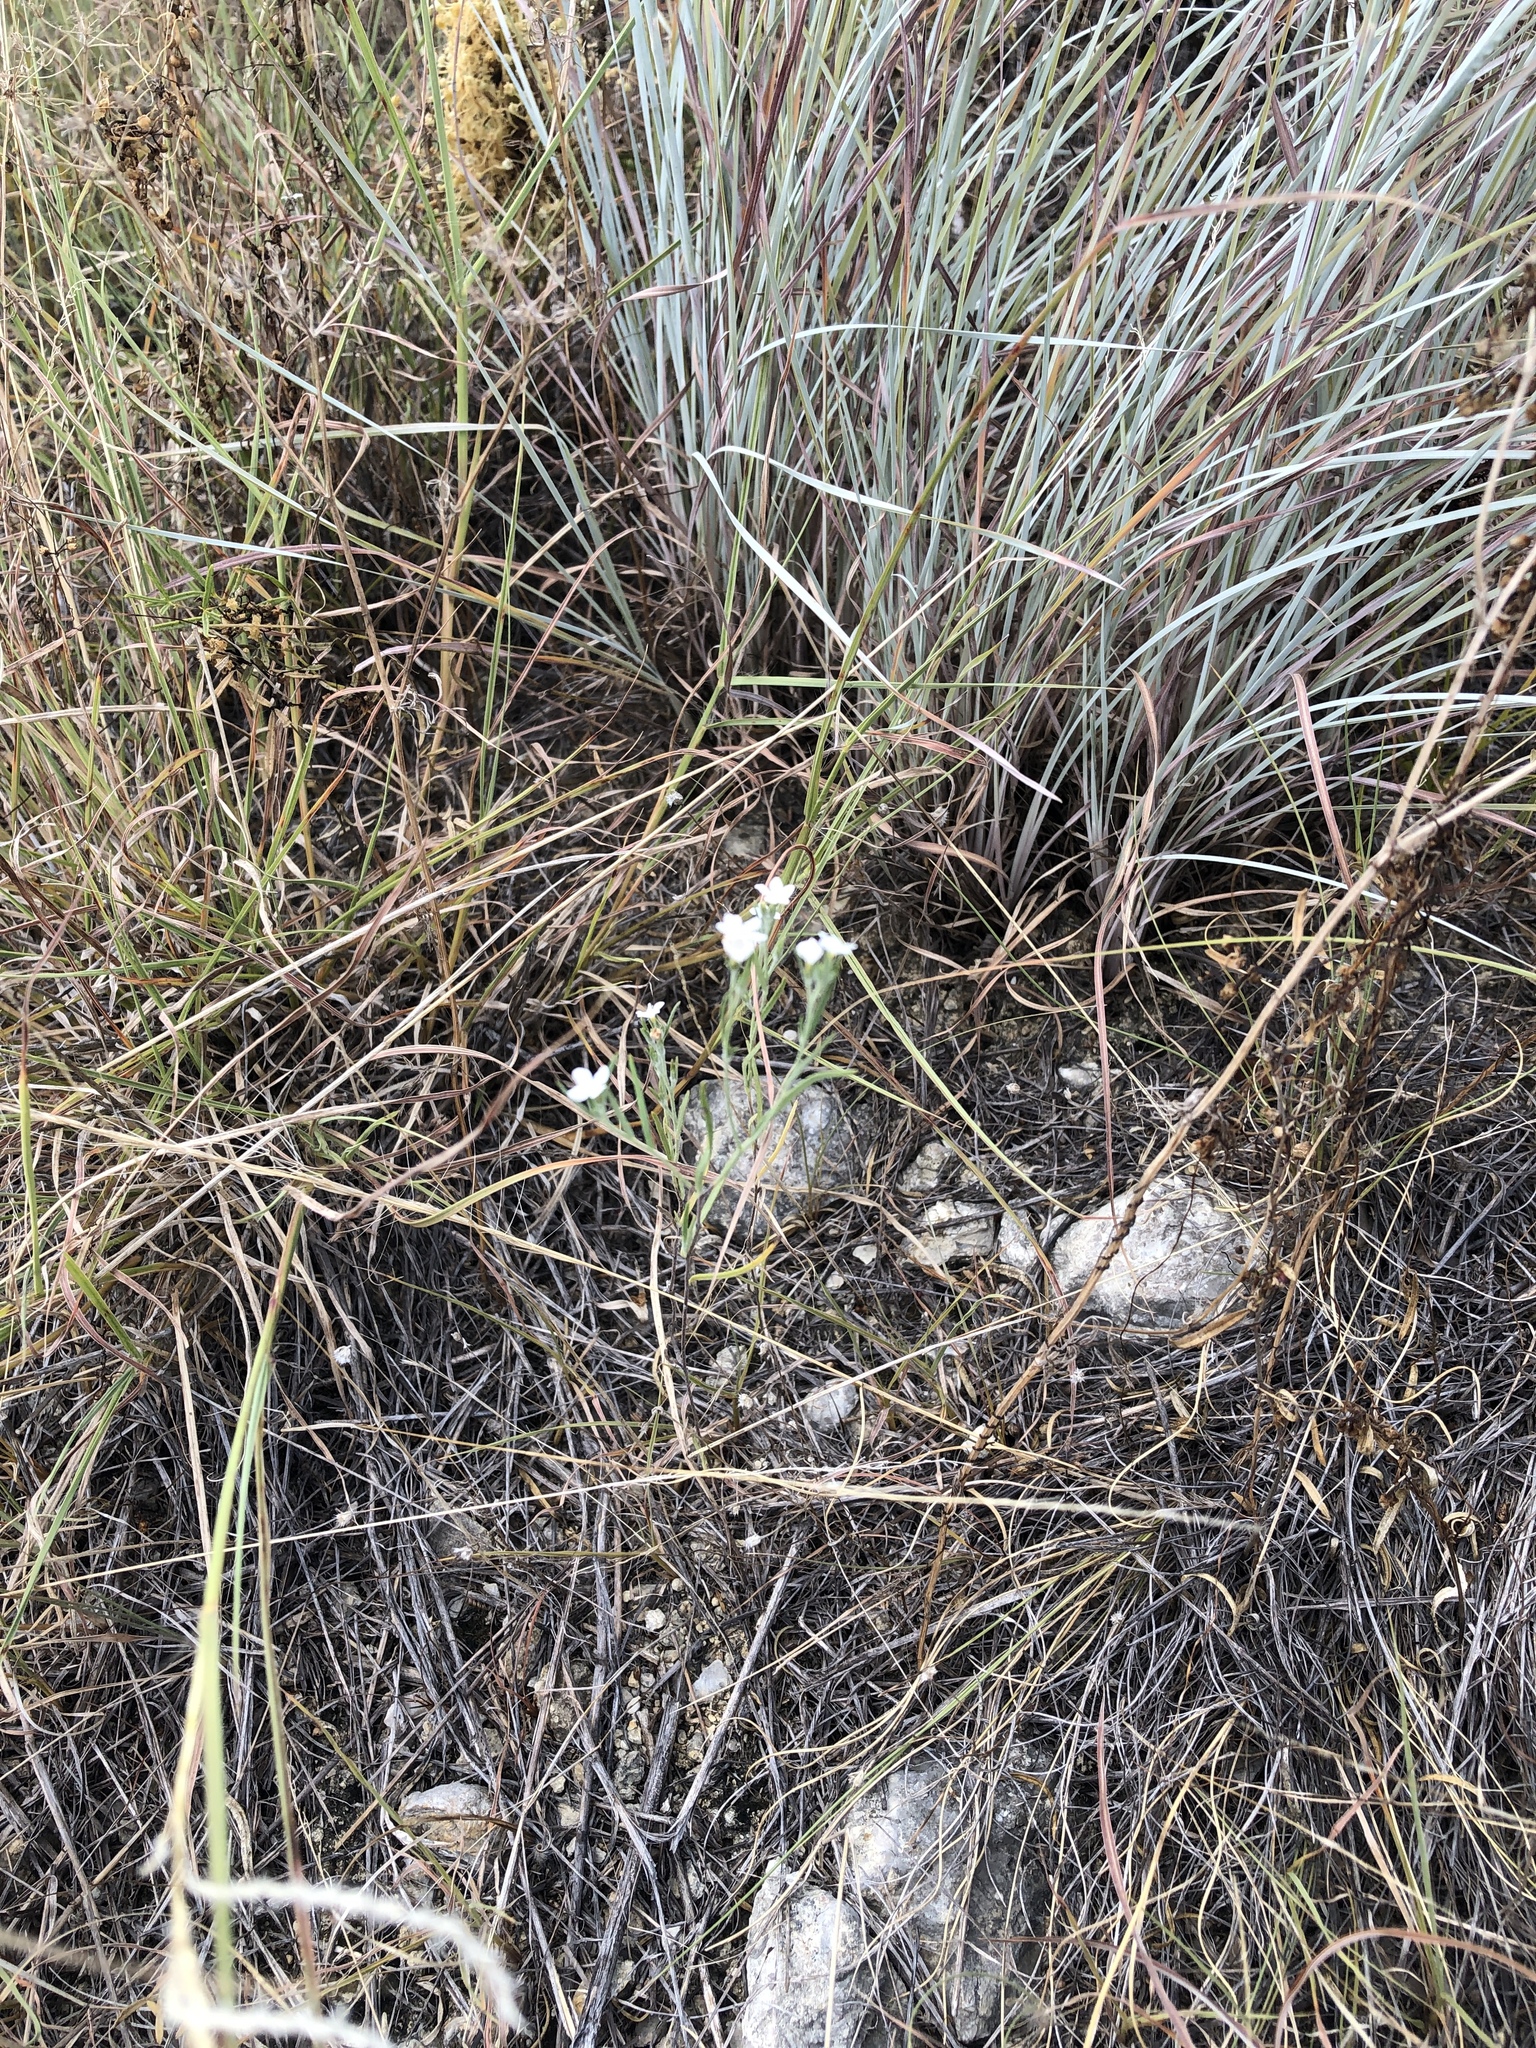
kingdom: Plantae
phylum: Tracheophyta
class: Magnoliopsida
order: Boraginales
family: Heliotropiaceae
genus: Euploca
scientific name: Euploca tenella
